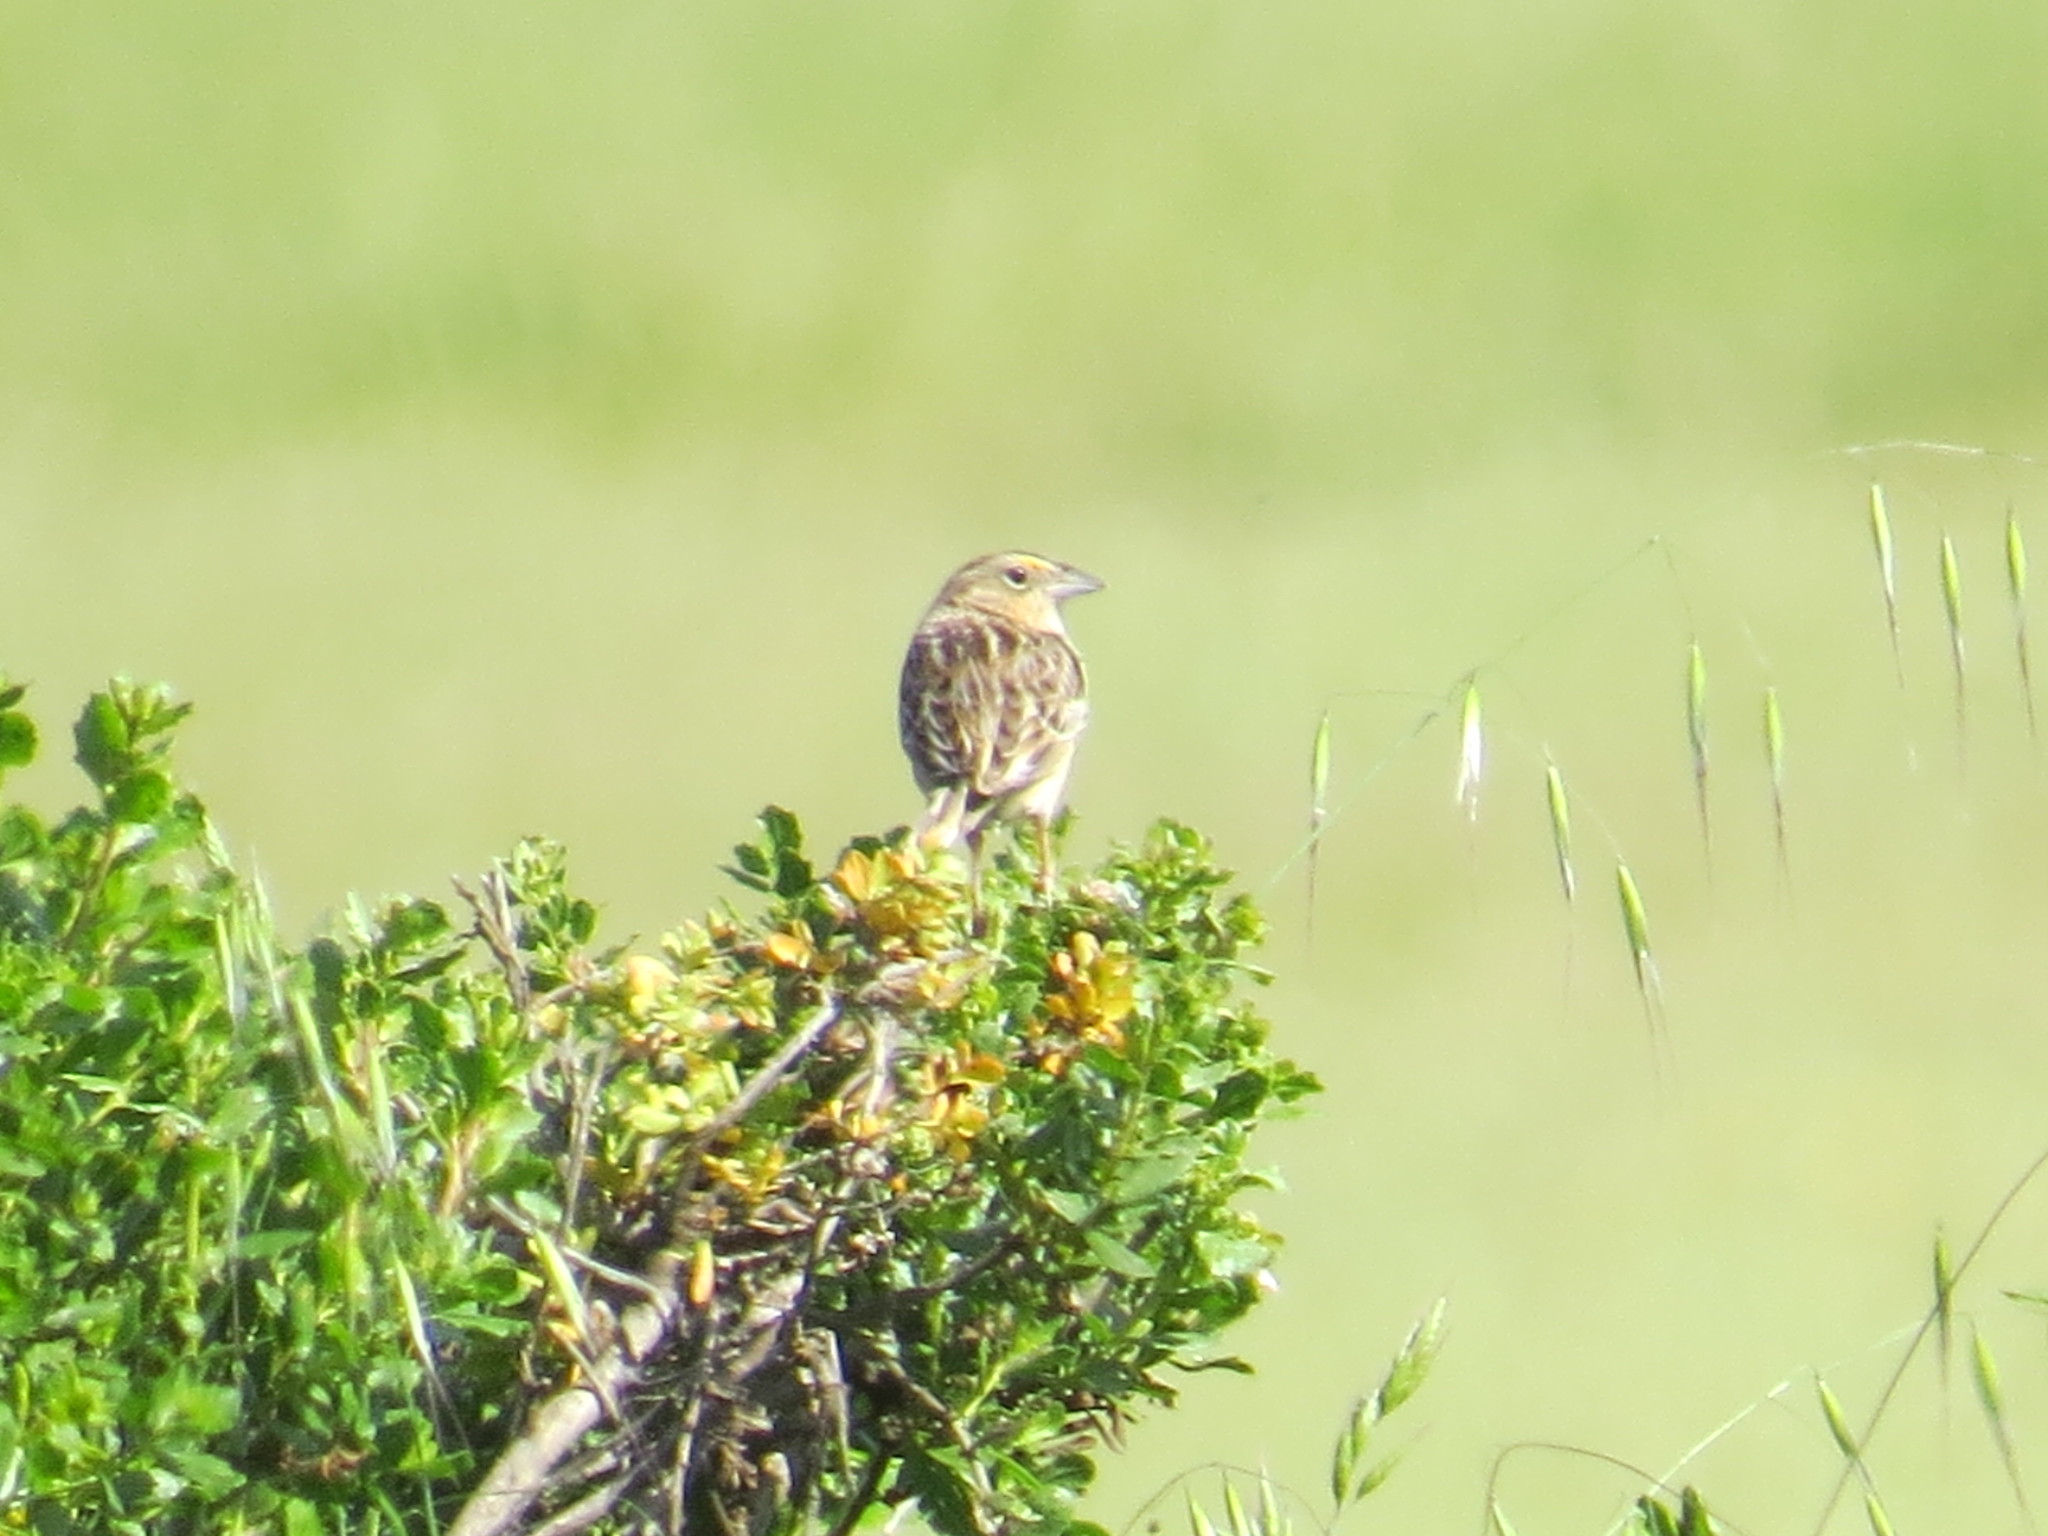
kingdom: Animalia
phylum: Chordata
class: Aves
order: Passeriformes
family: Passerellidae
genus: Ammodramus
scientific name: Ammodramus savannarum
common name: Grasshopper sparrow
